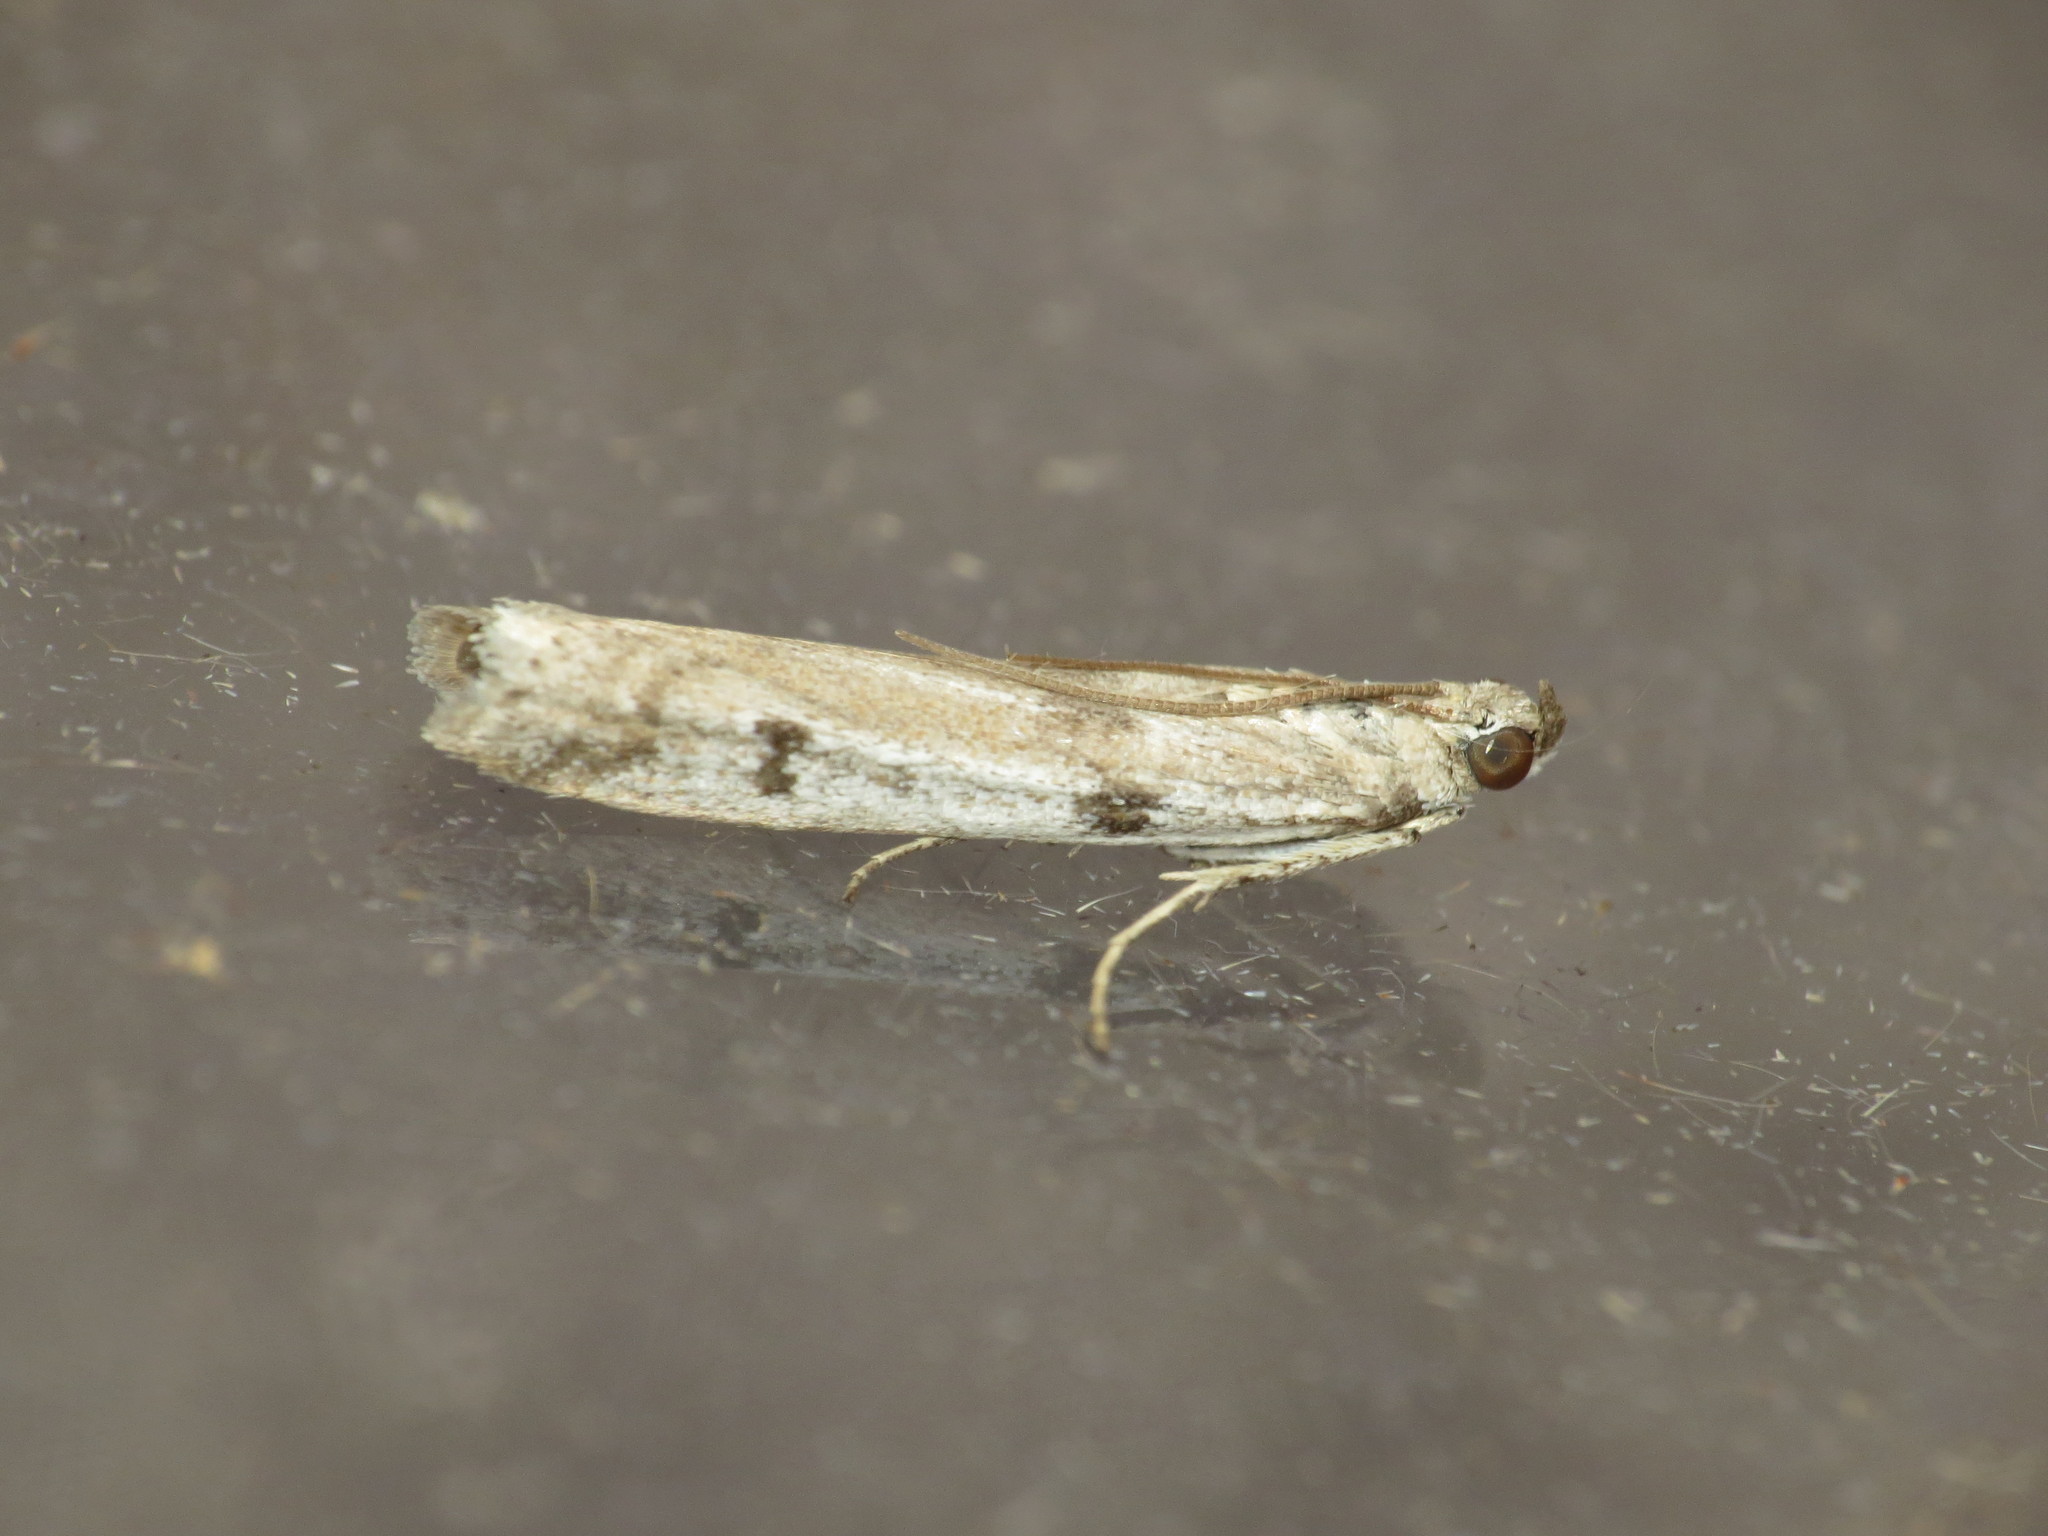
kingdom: Animalia
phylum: Arthropoda
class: Insecta
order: Lepidoptera
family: Pyralidae
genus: Phycitodes
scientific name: Phycitodes binaevella
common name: Ermine knot-horn
